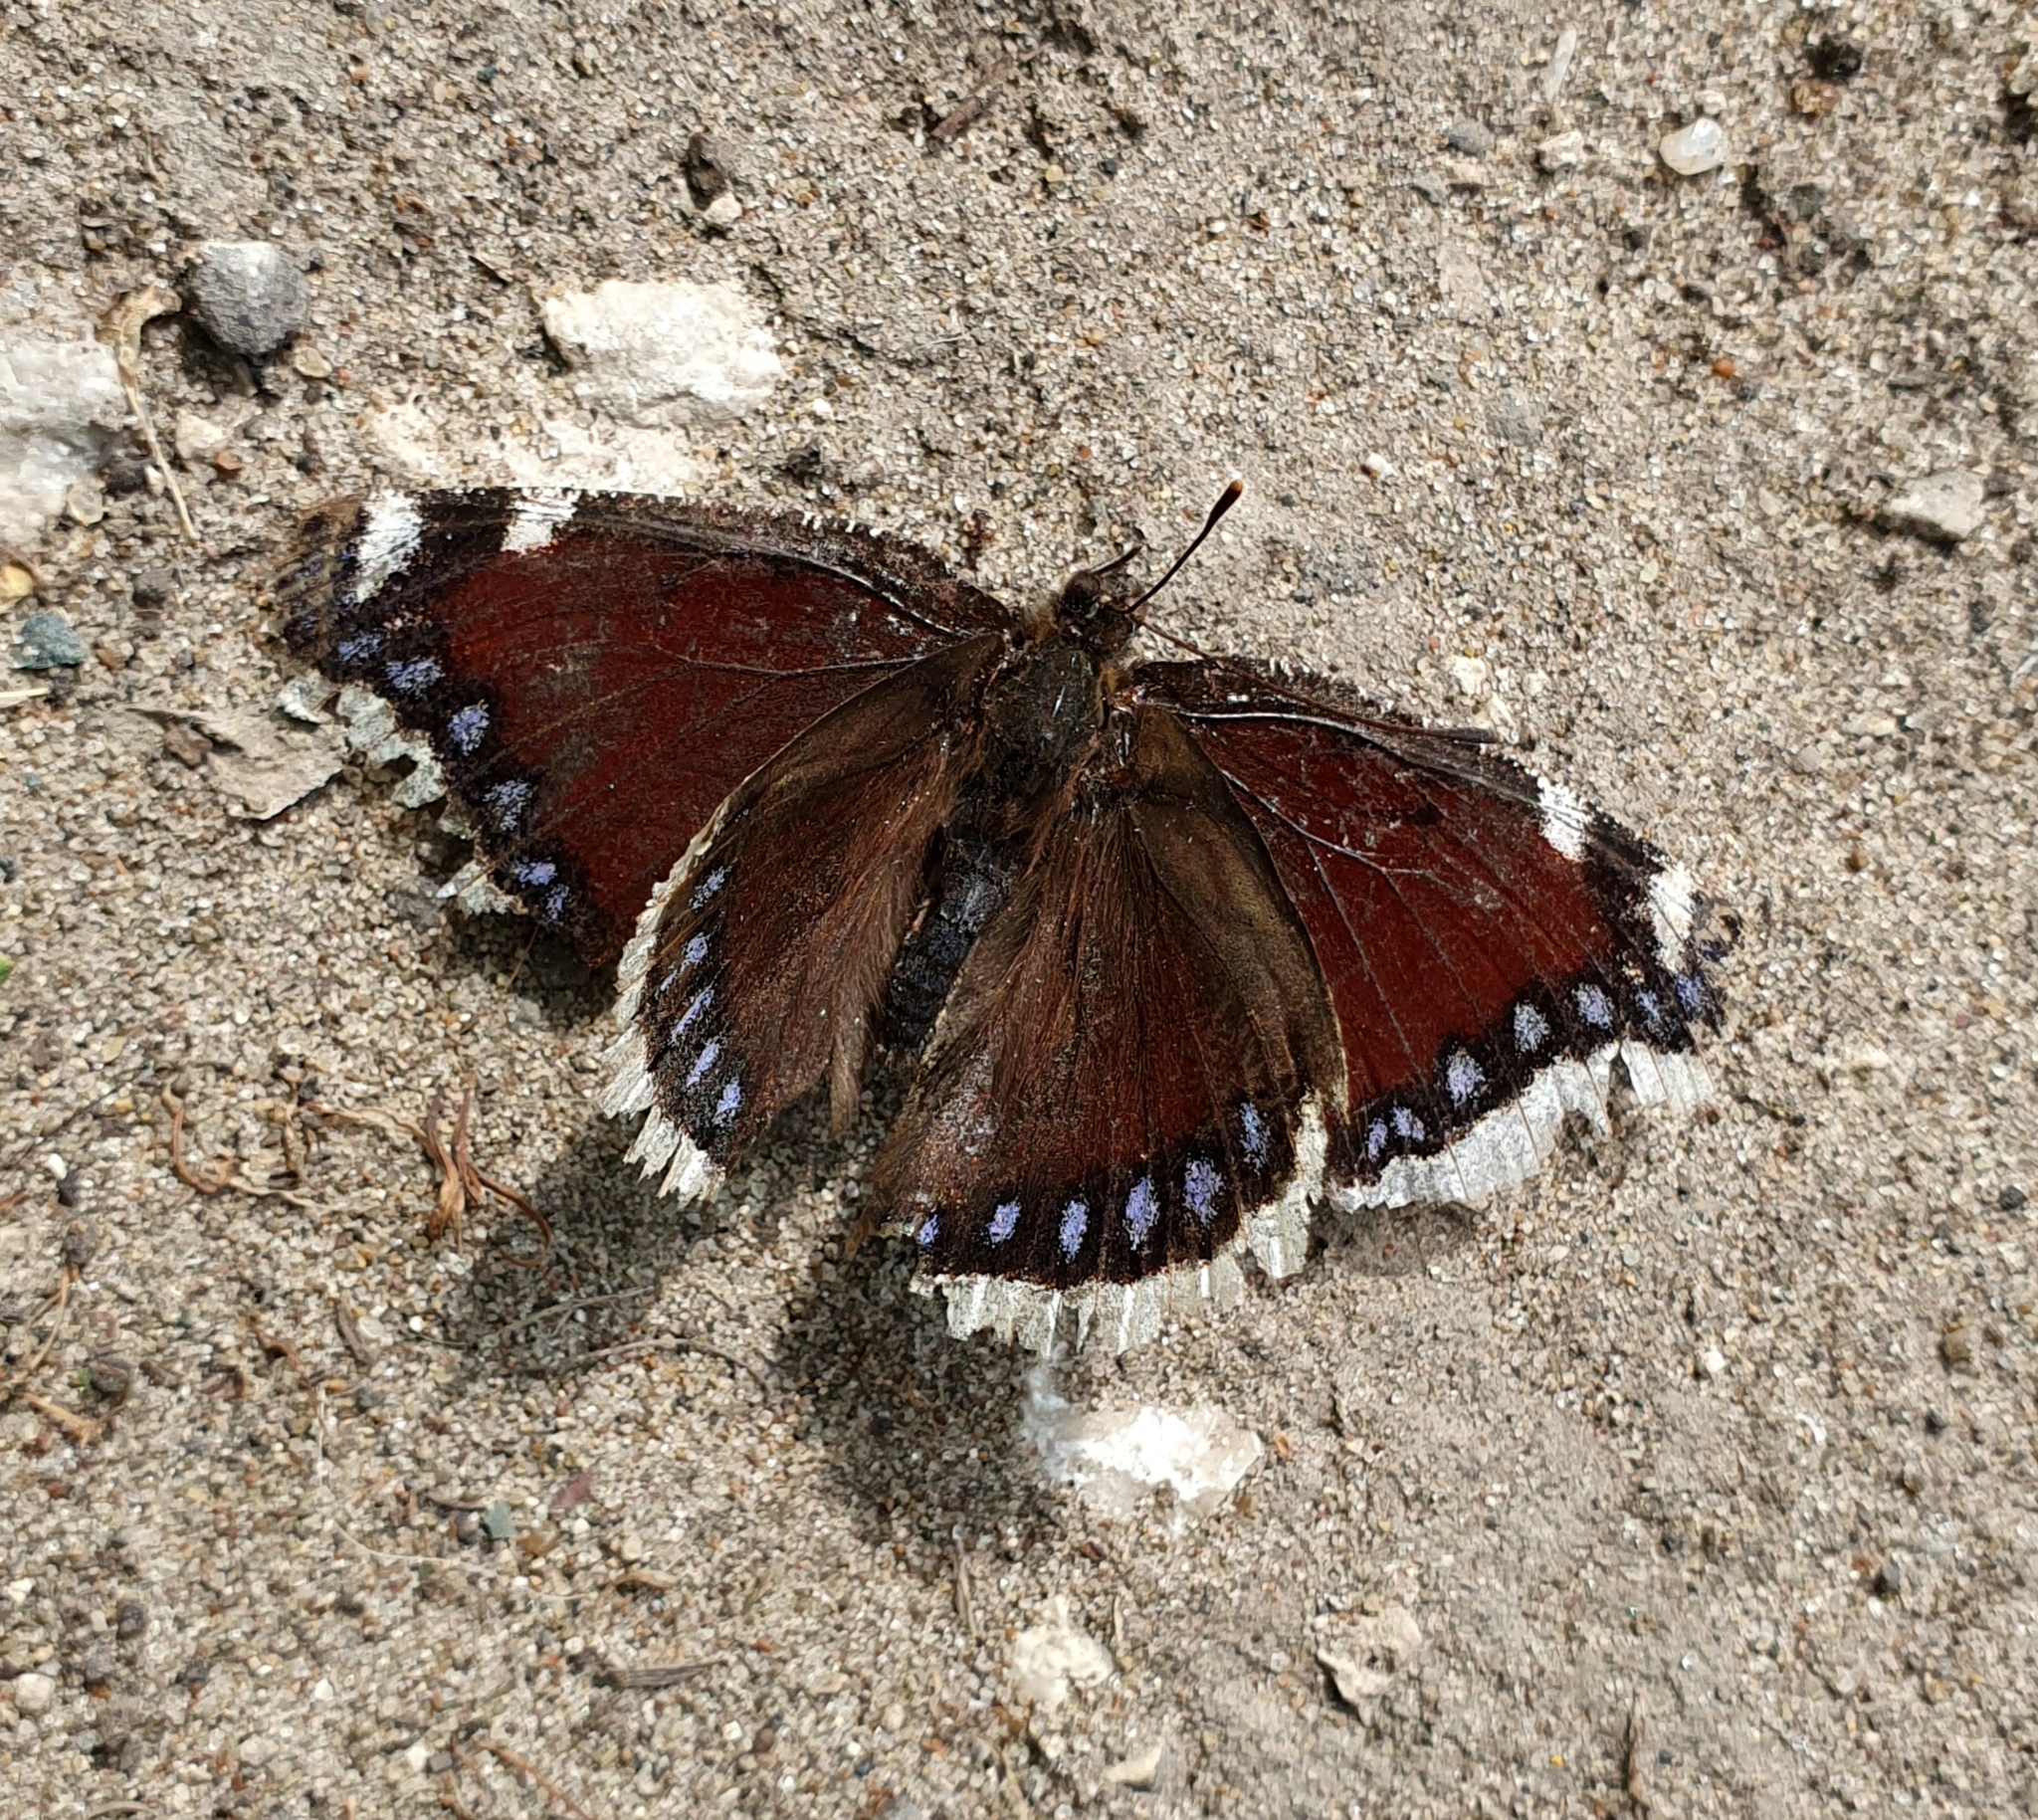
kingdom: Animalia
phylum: Arthropoda
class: Insecta
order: Lepidoptera
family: Nymphalidae
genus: Nymphalis
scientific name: Nymphalis antiopa
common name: Camberwell beauty
